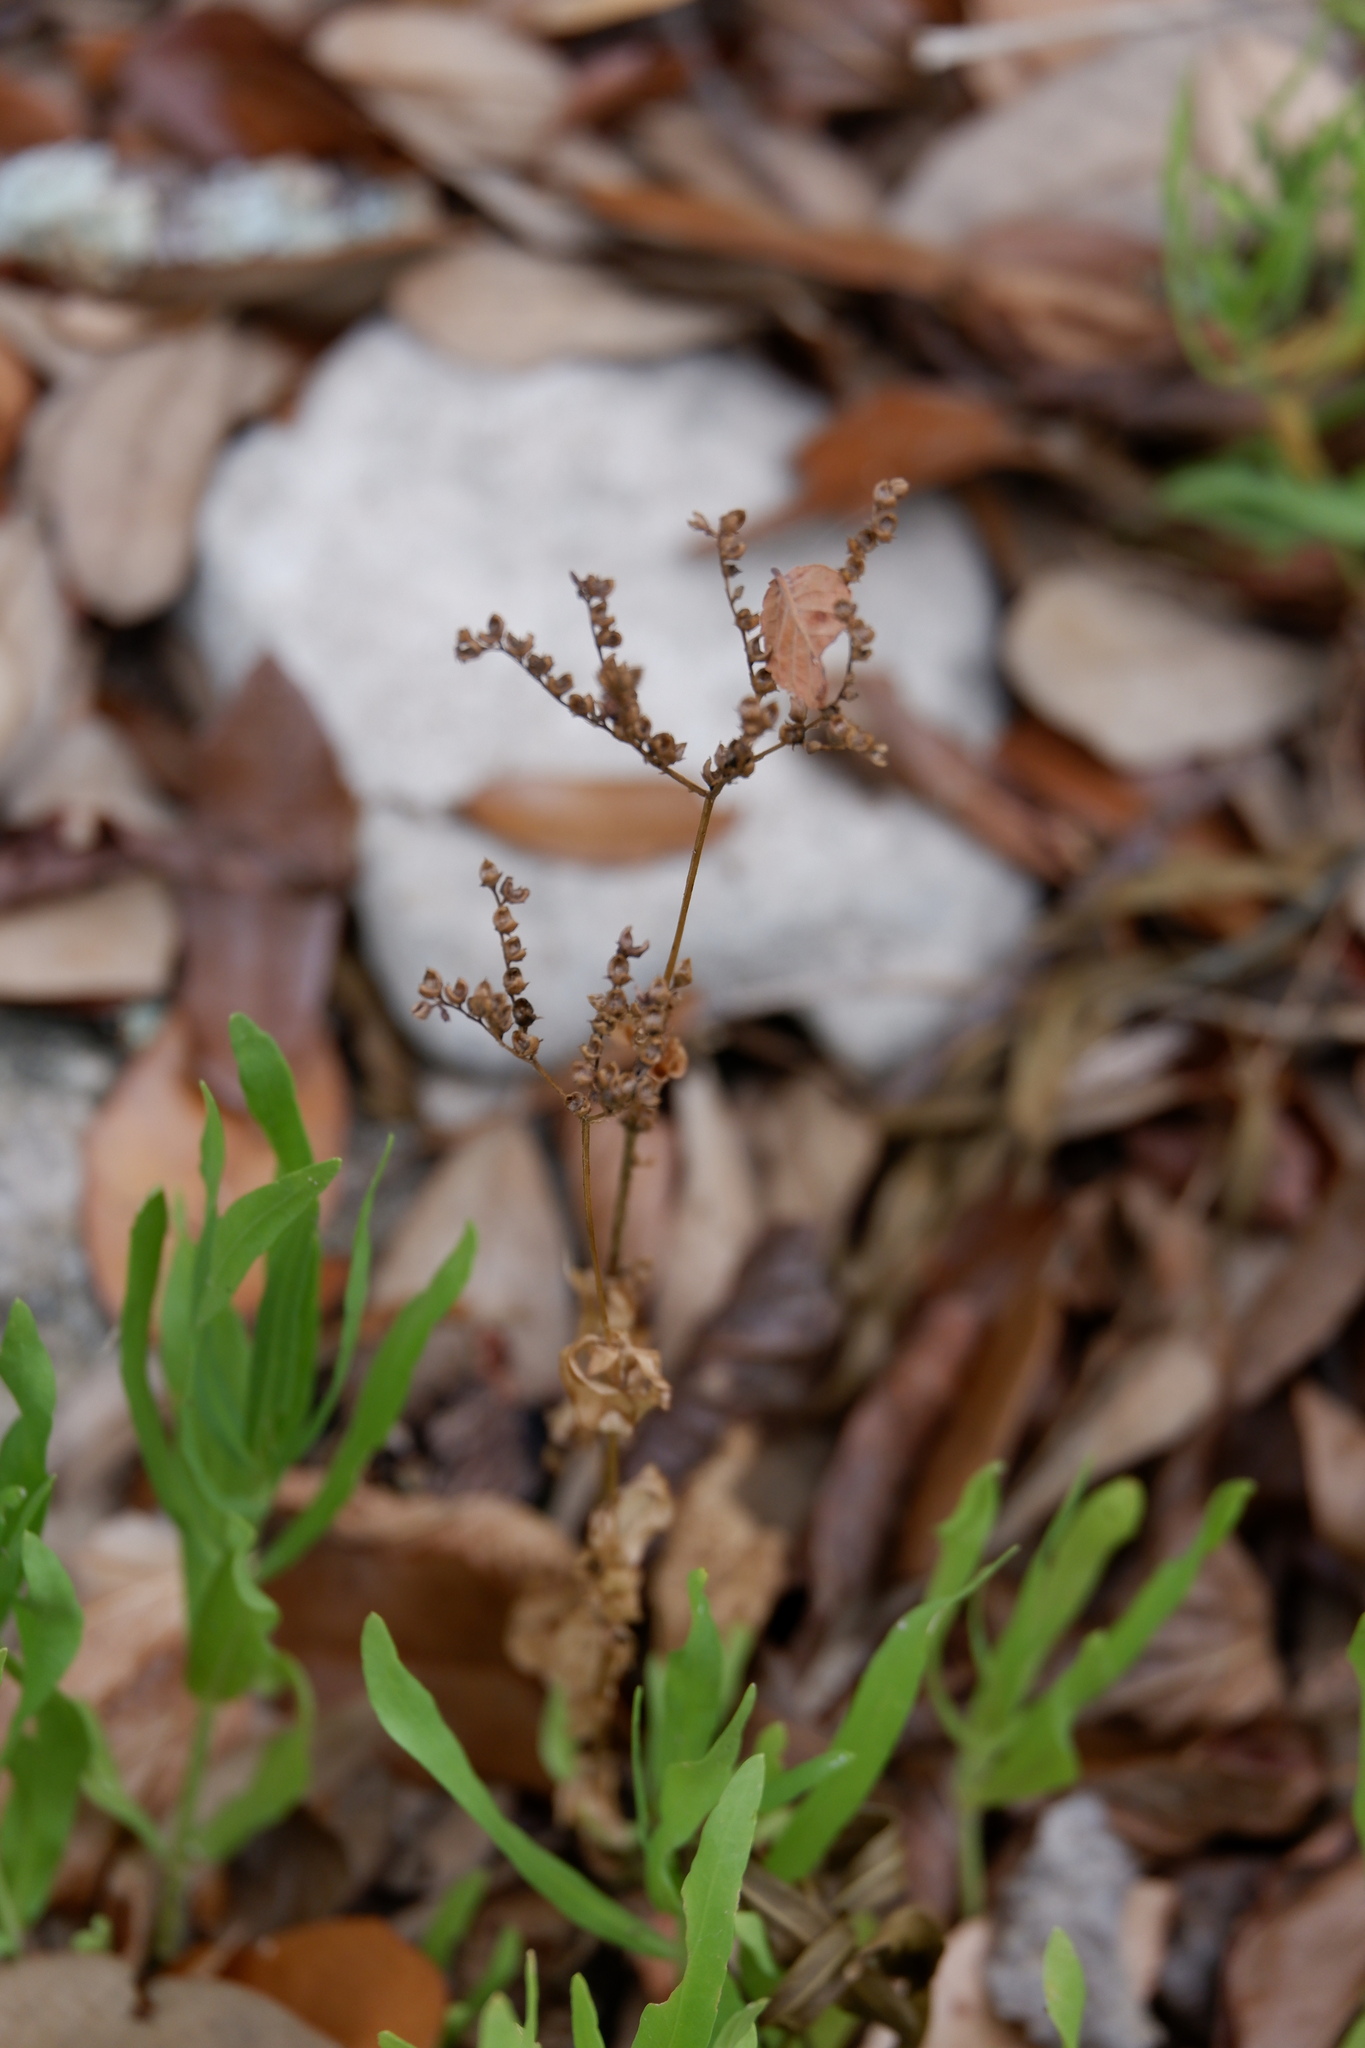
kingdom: Plantae
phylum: Tracheophyta
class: Magnoliopsida
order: Gentianales
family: Loganiaceae
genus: Mitreola
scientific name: Mitreola petiolata
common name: Lax hornpod
